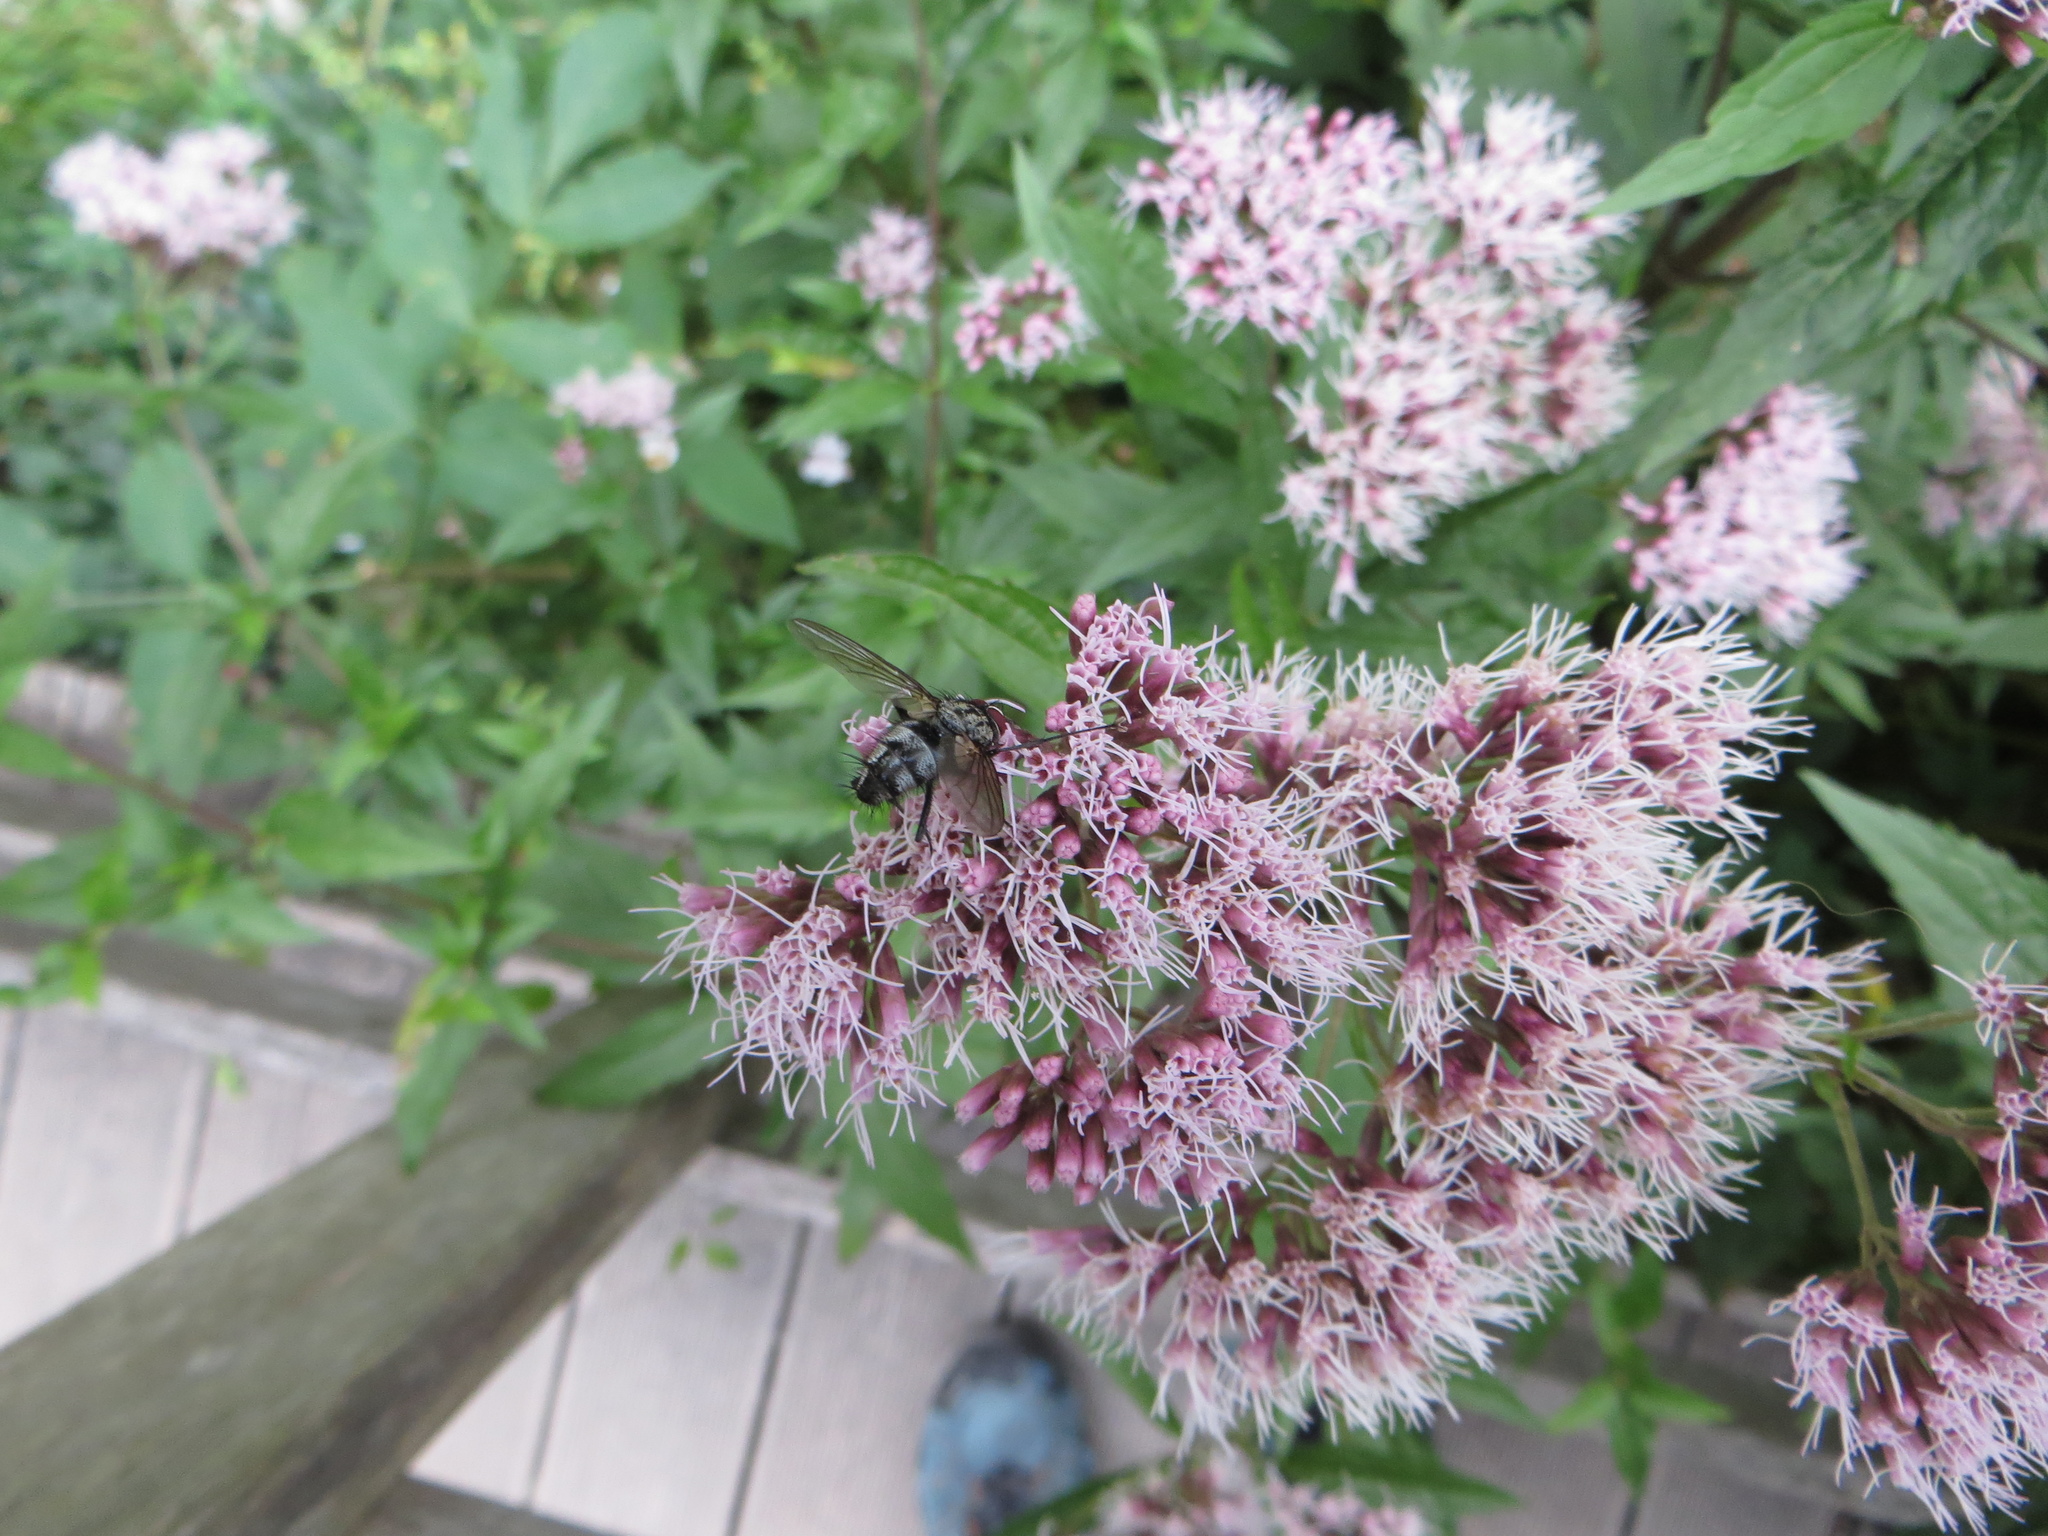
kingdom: Animalia
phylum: Arthropoda
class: Insecta
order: Diptera
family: Tachinidae
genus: Dinera
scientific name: Dinera ferina
